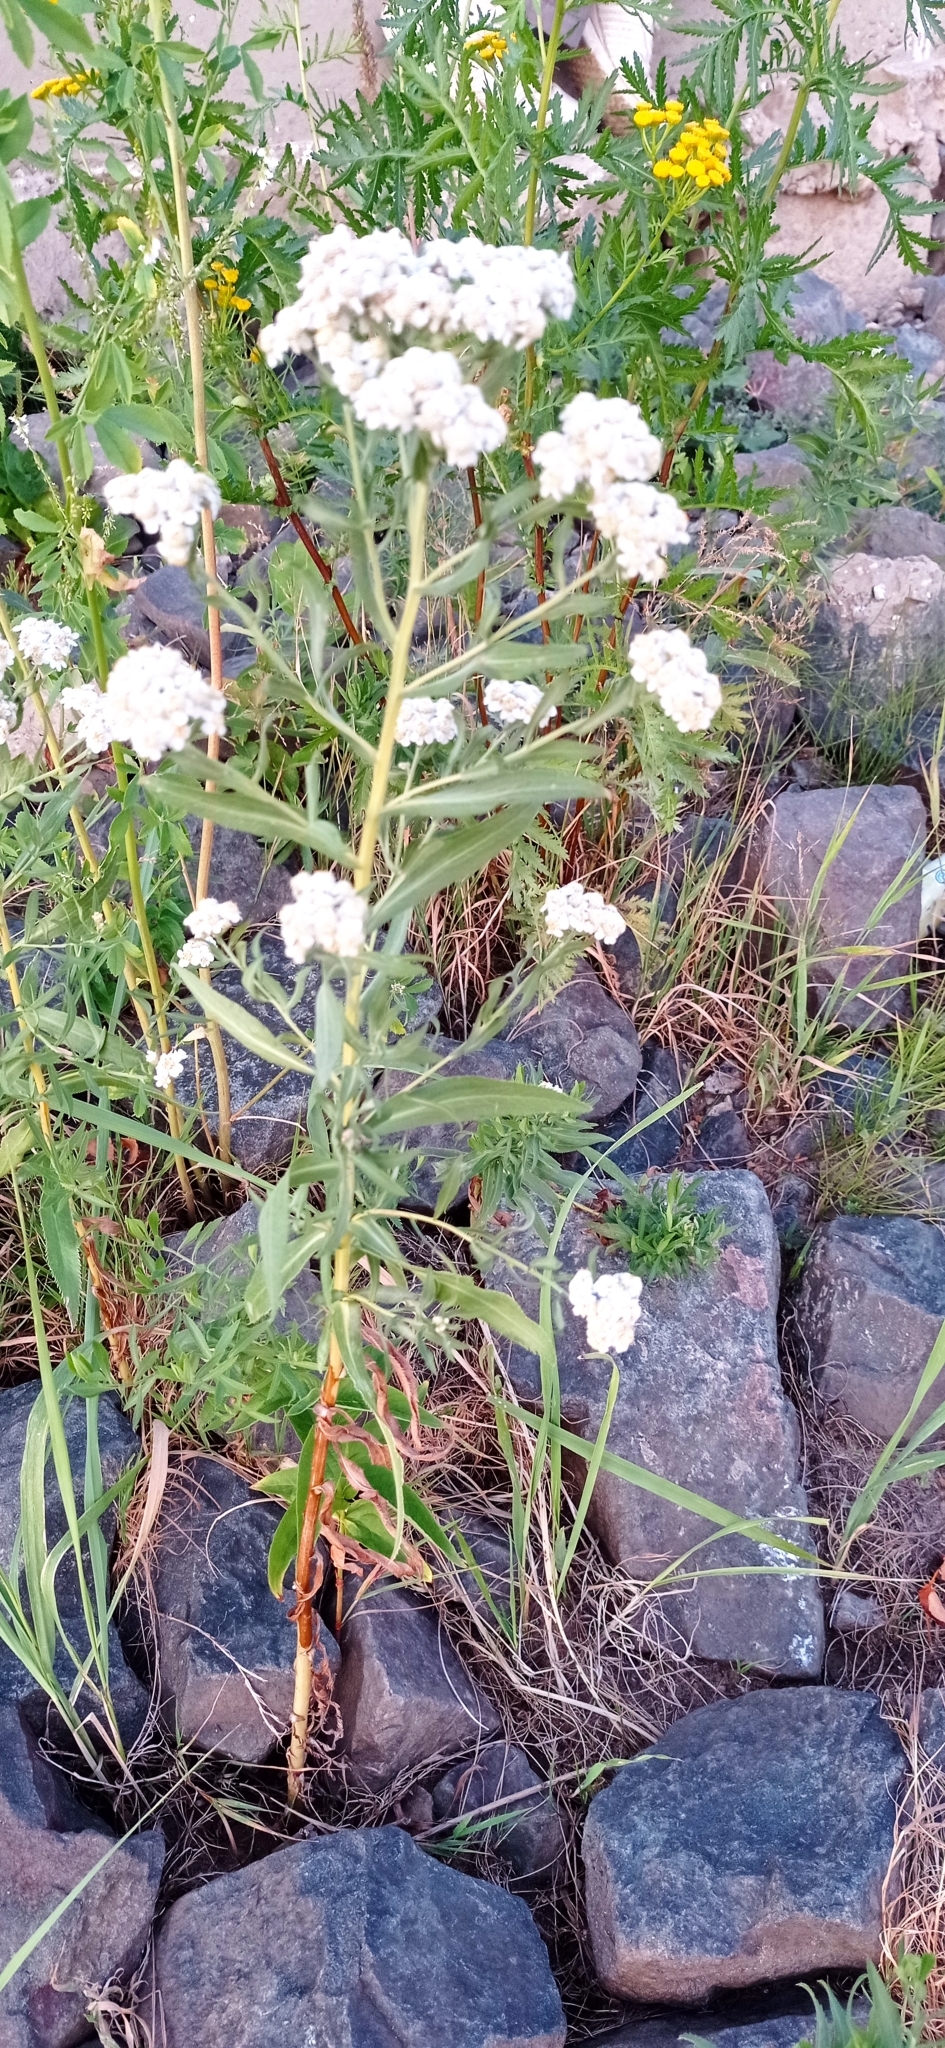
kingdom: Plantae
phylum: Tracheophyta
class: Magnoliopsida
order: Asterales
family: Asteraceae
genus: Achillea
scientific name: Achillea salicifolia
